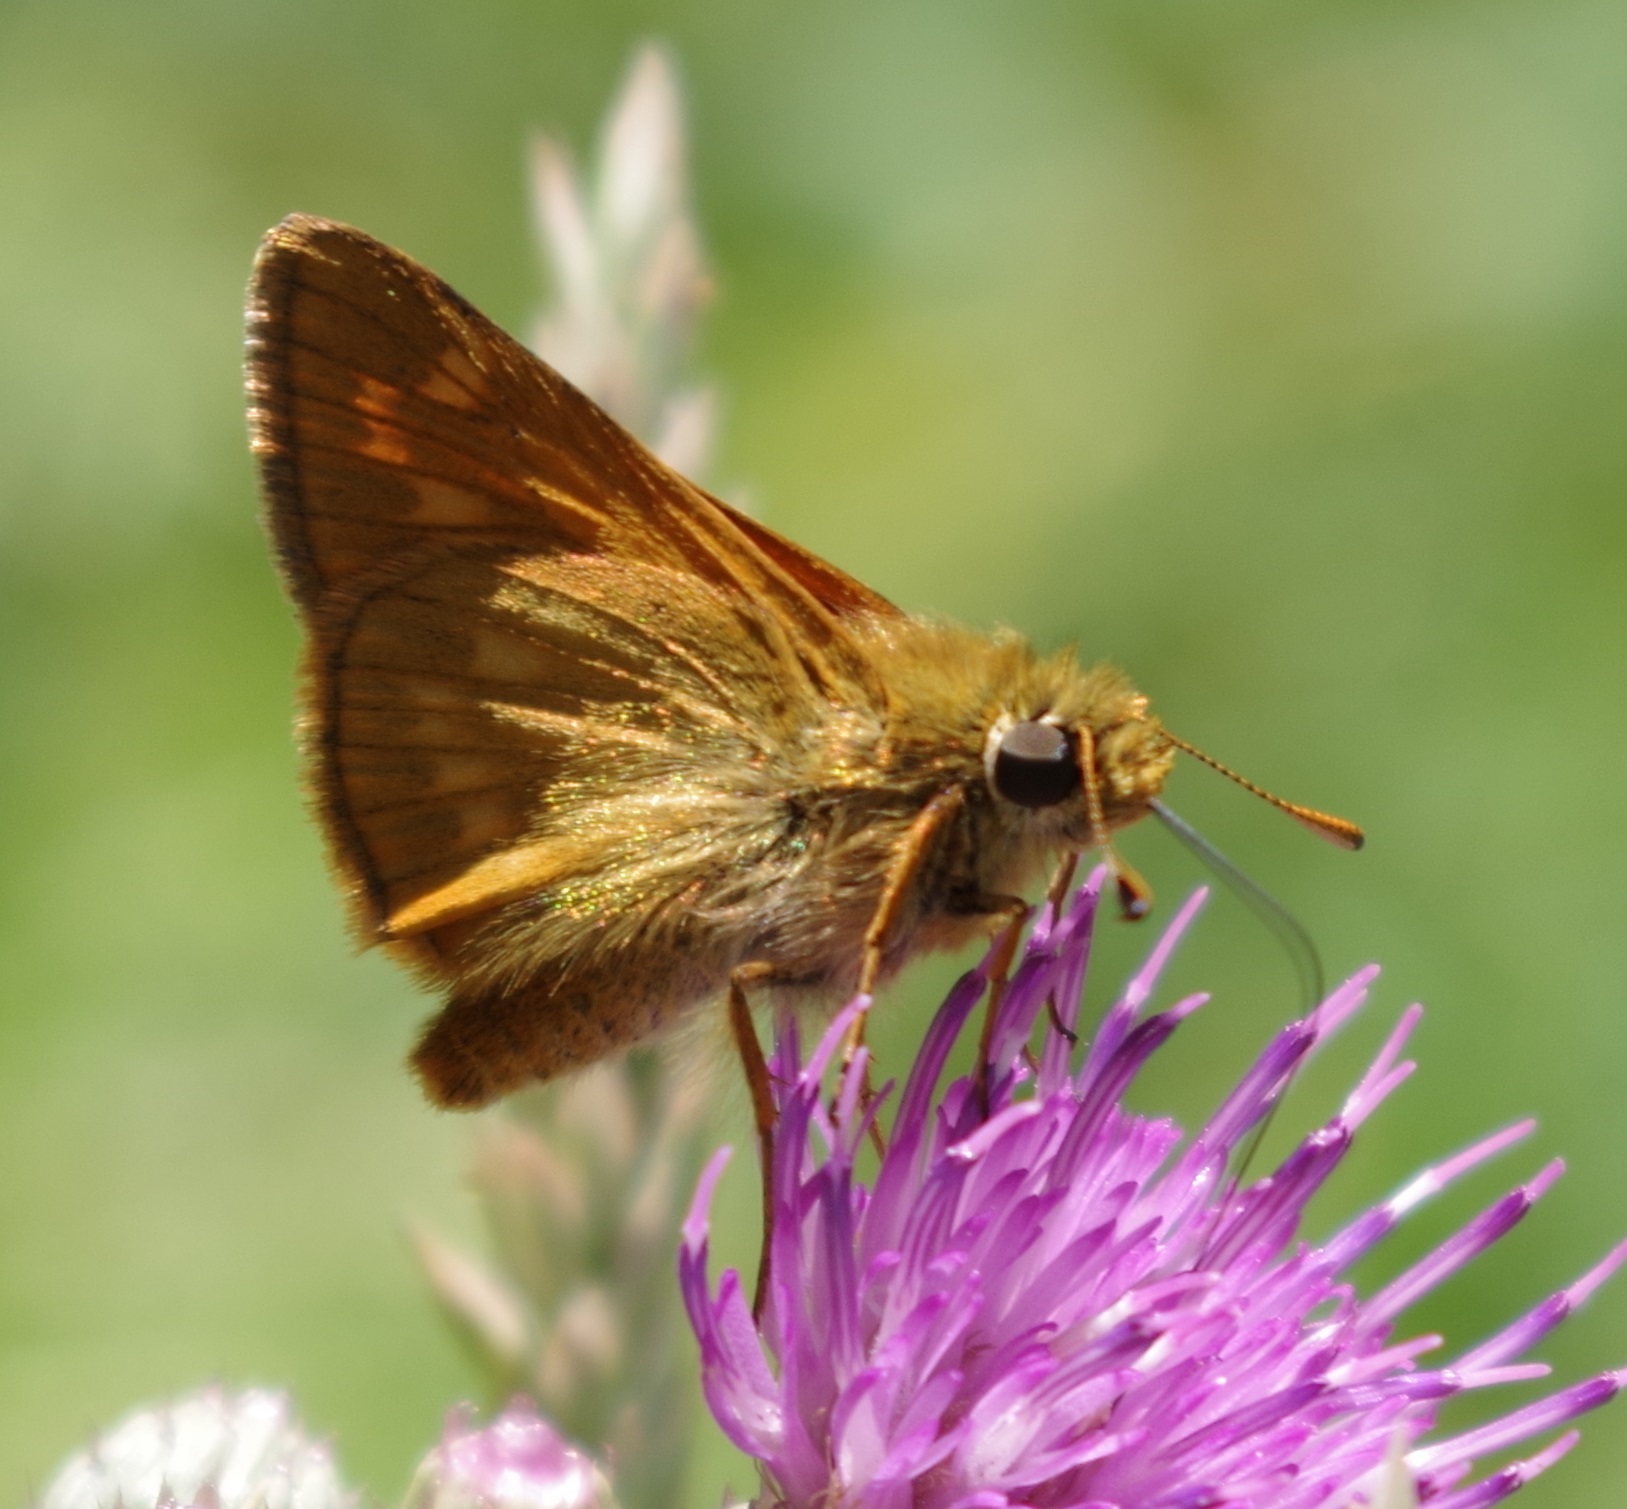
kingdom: Animalia
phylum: Arthropoda
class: Insecta
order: Lepidoptera
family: Hesperiidae
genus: Ochlodes
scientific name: Ochlodes venata
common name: Large skipper
